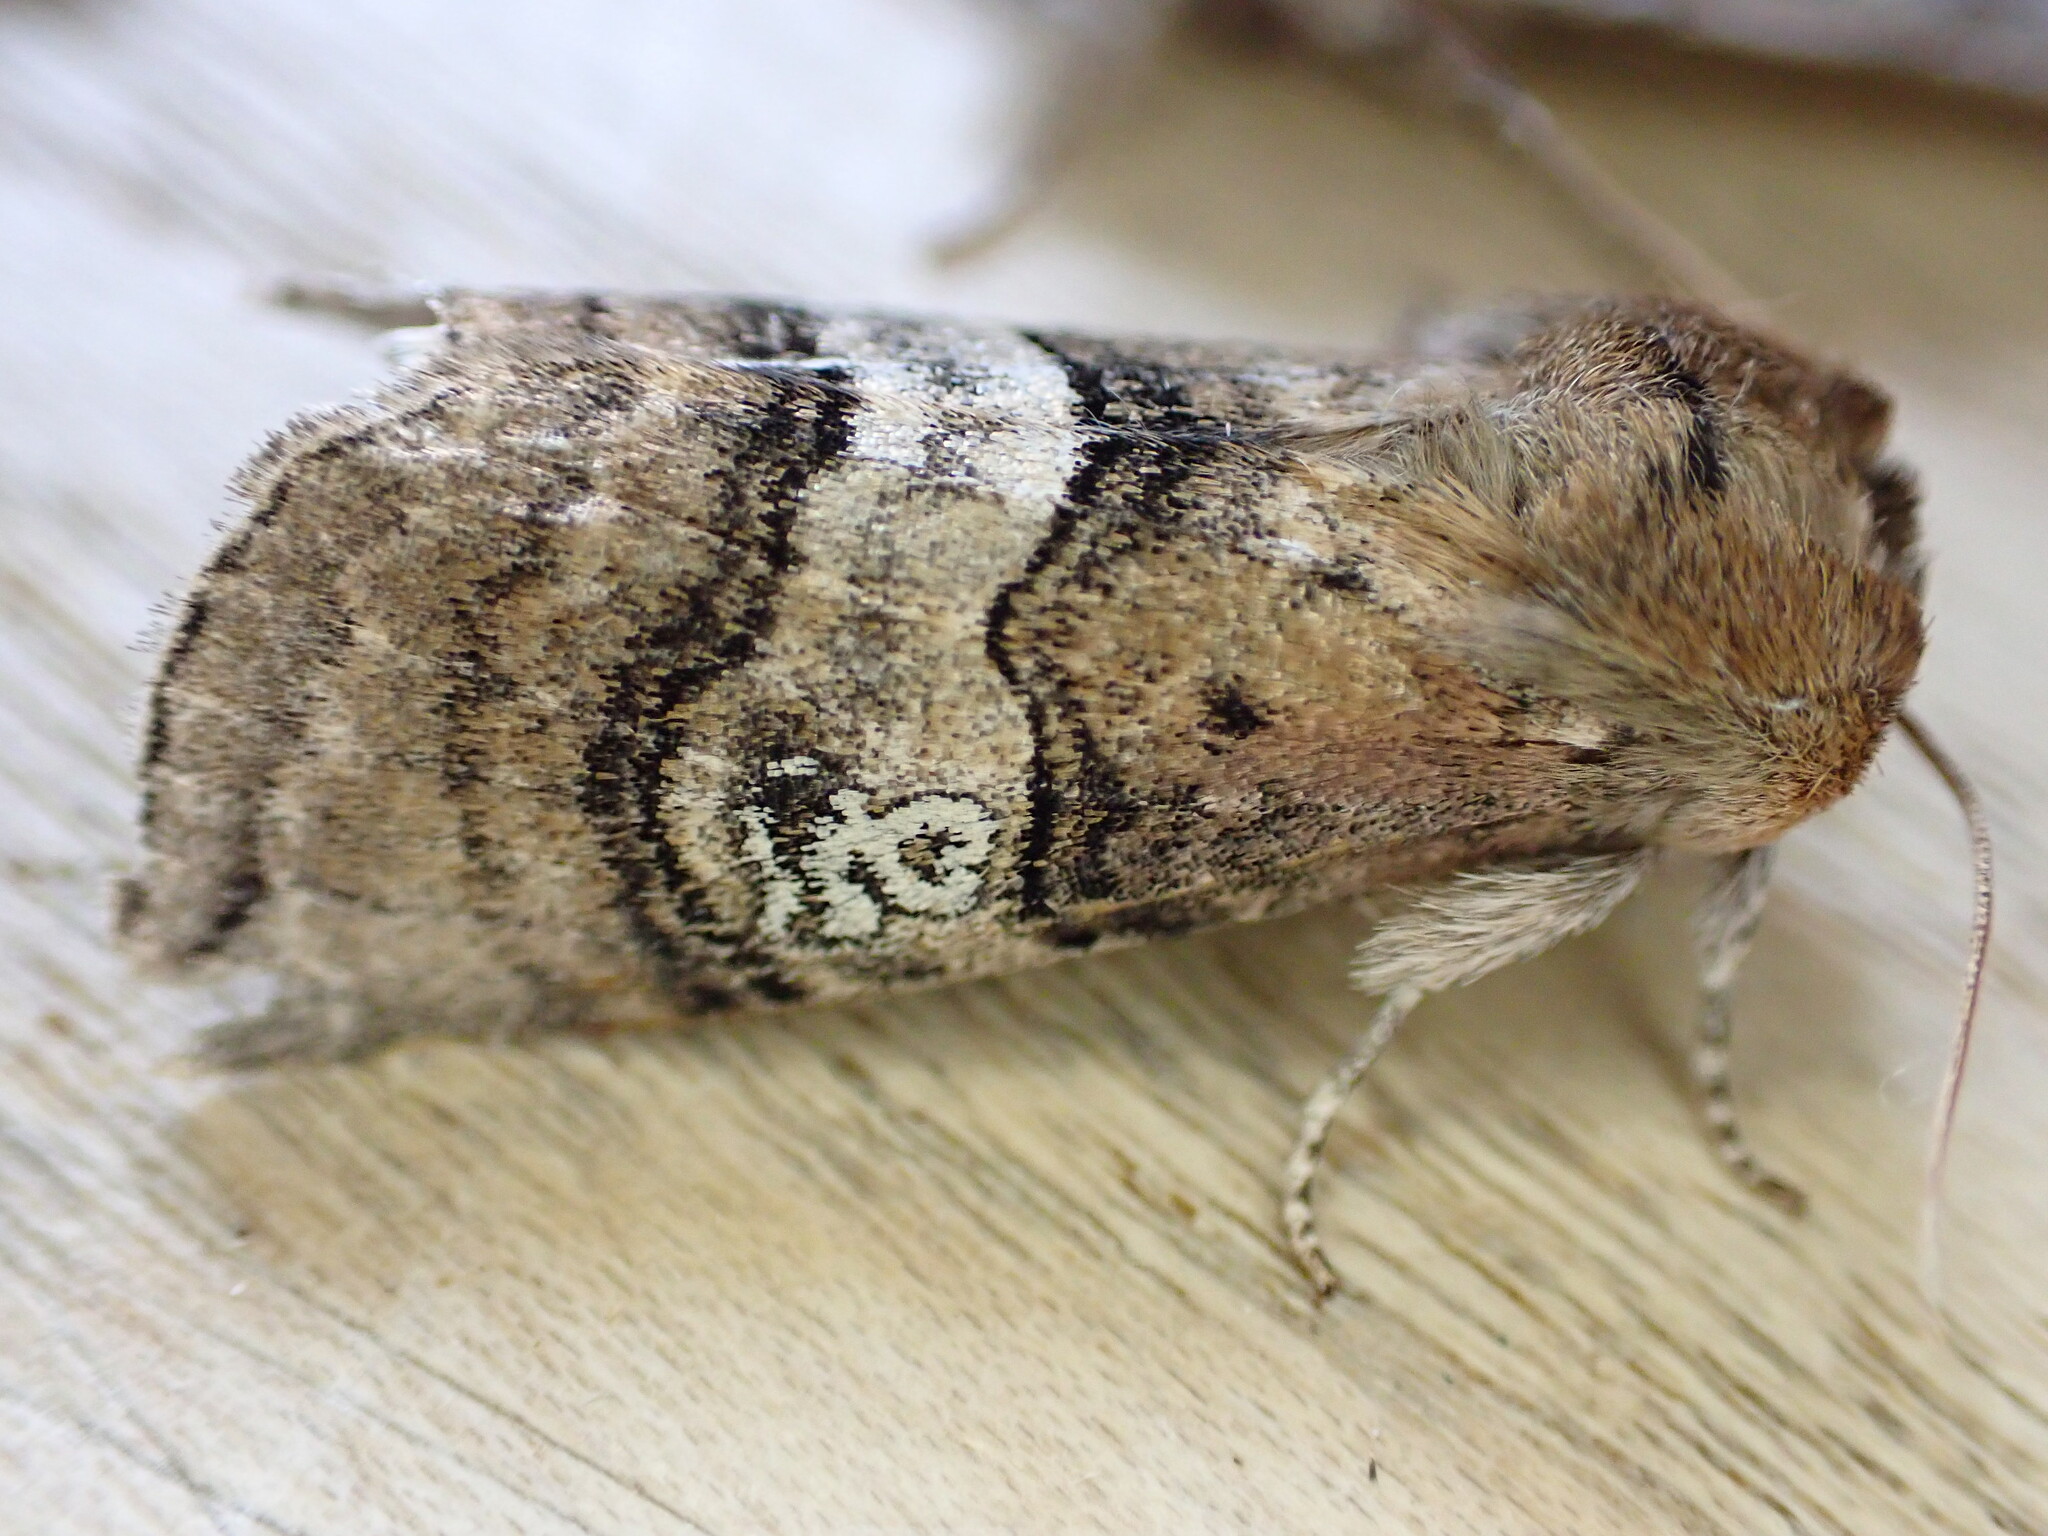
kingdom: Animalia
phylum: Arthropoda
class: Insecta
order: Lepidoptera
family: Drepanidae
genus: Tethea
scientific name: Tethea ocularis
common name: Figure of eighty
